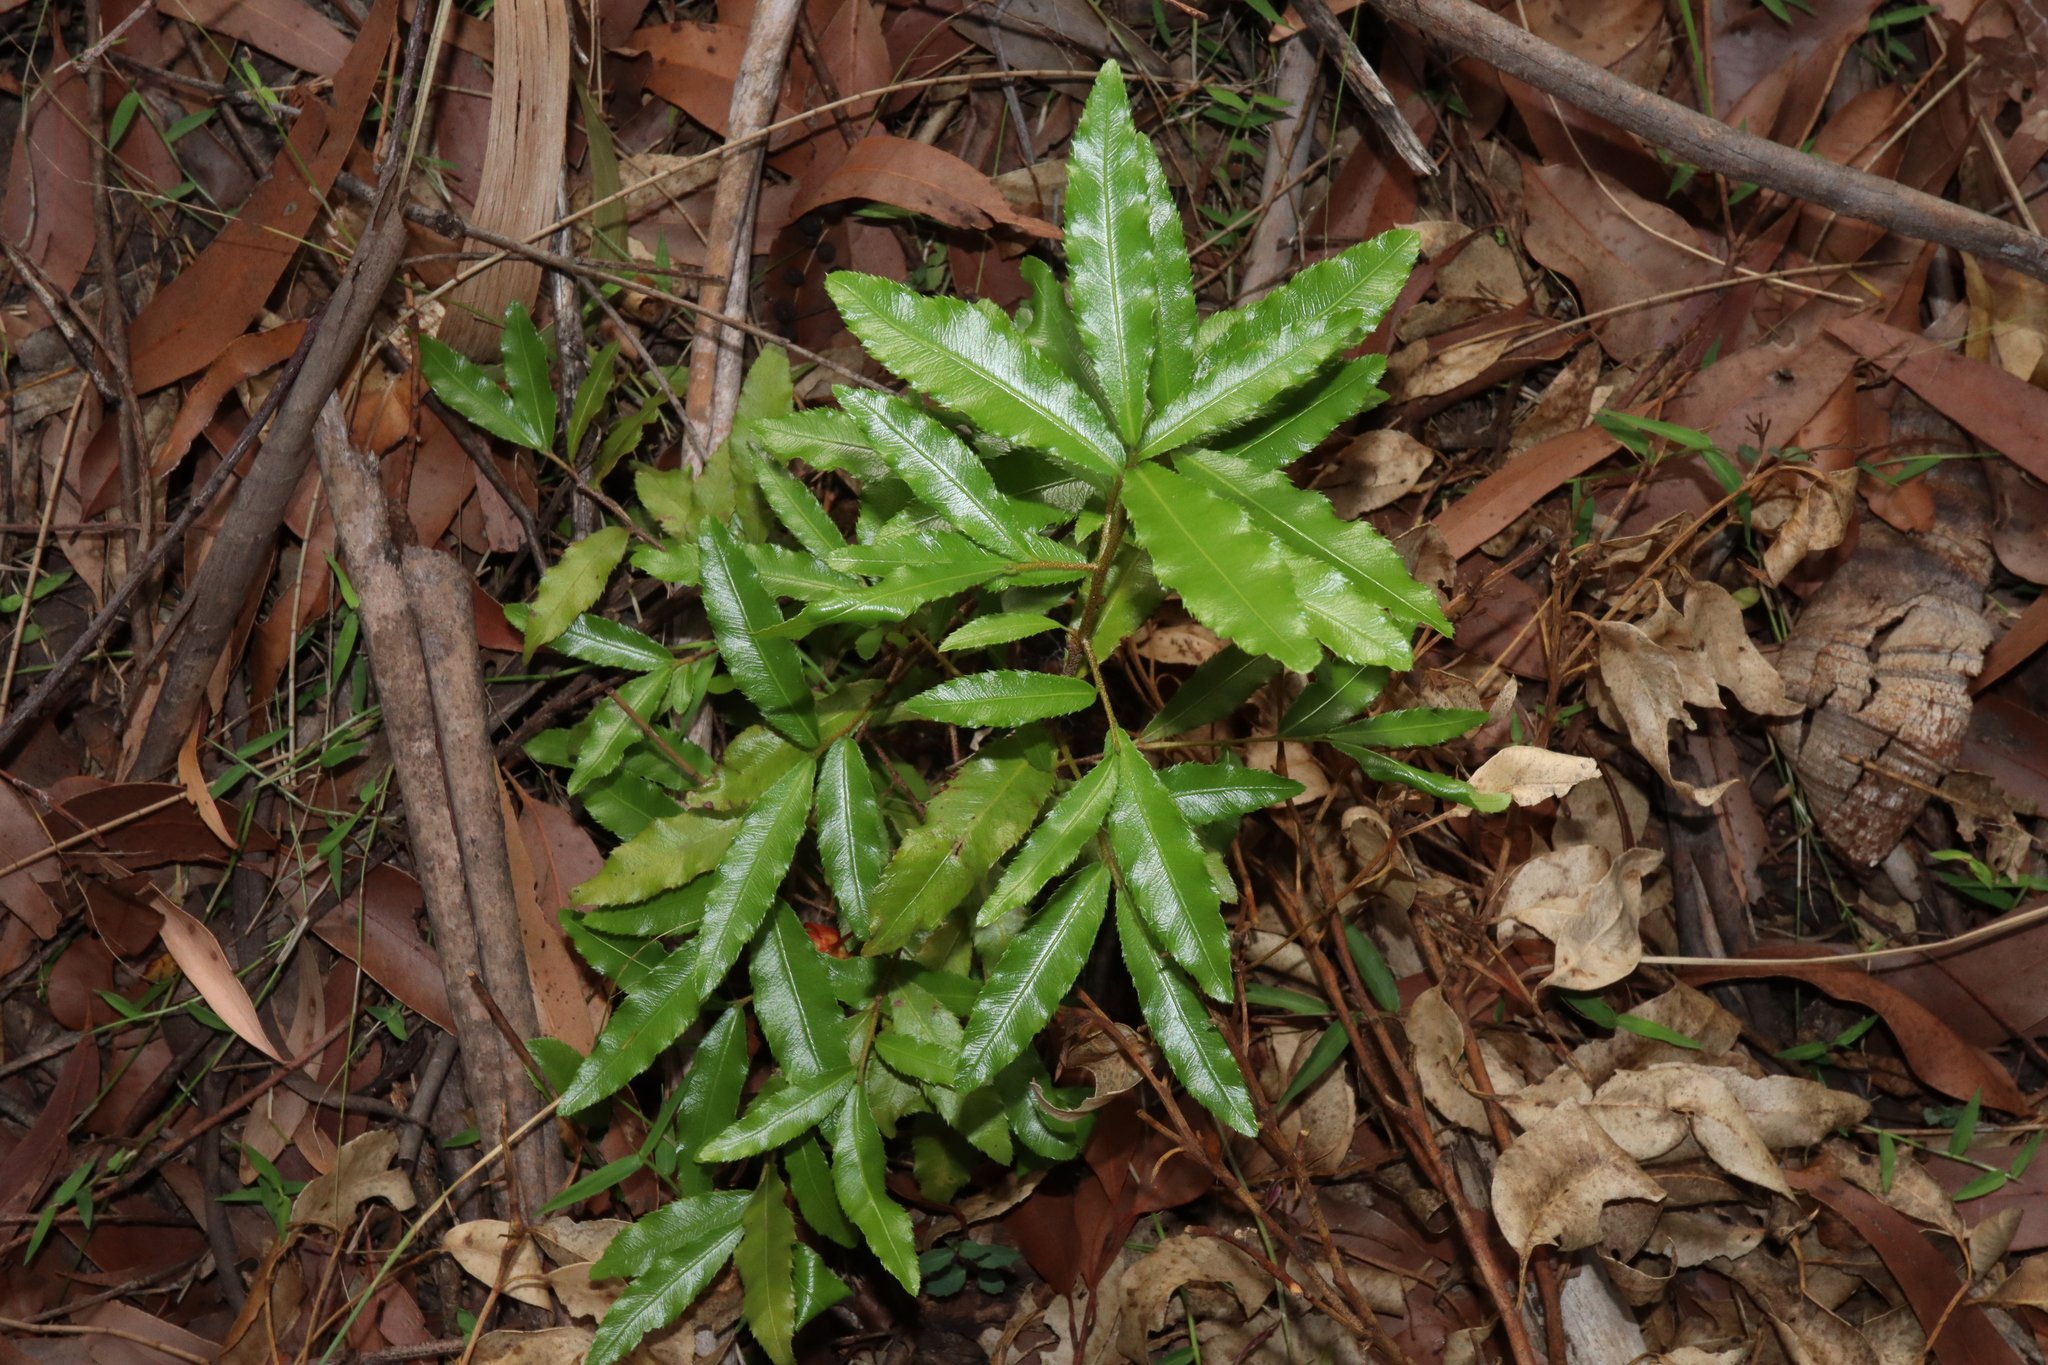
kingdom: Plantae
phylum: Tracheophyta
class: Magnoliopsida
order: Malpighiales
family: Ochnaceae
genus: Ochna
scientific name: Ochna serrulata
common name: Mickey mouse plant
